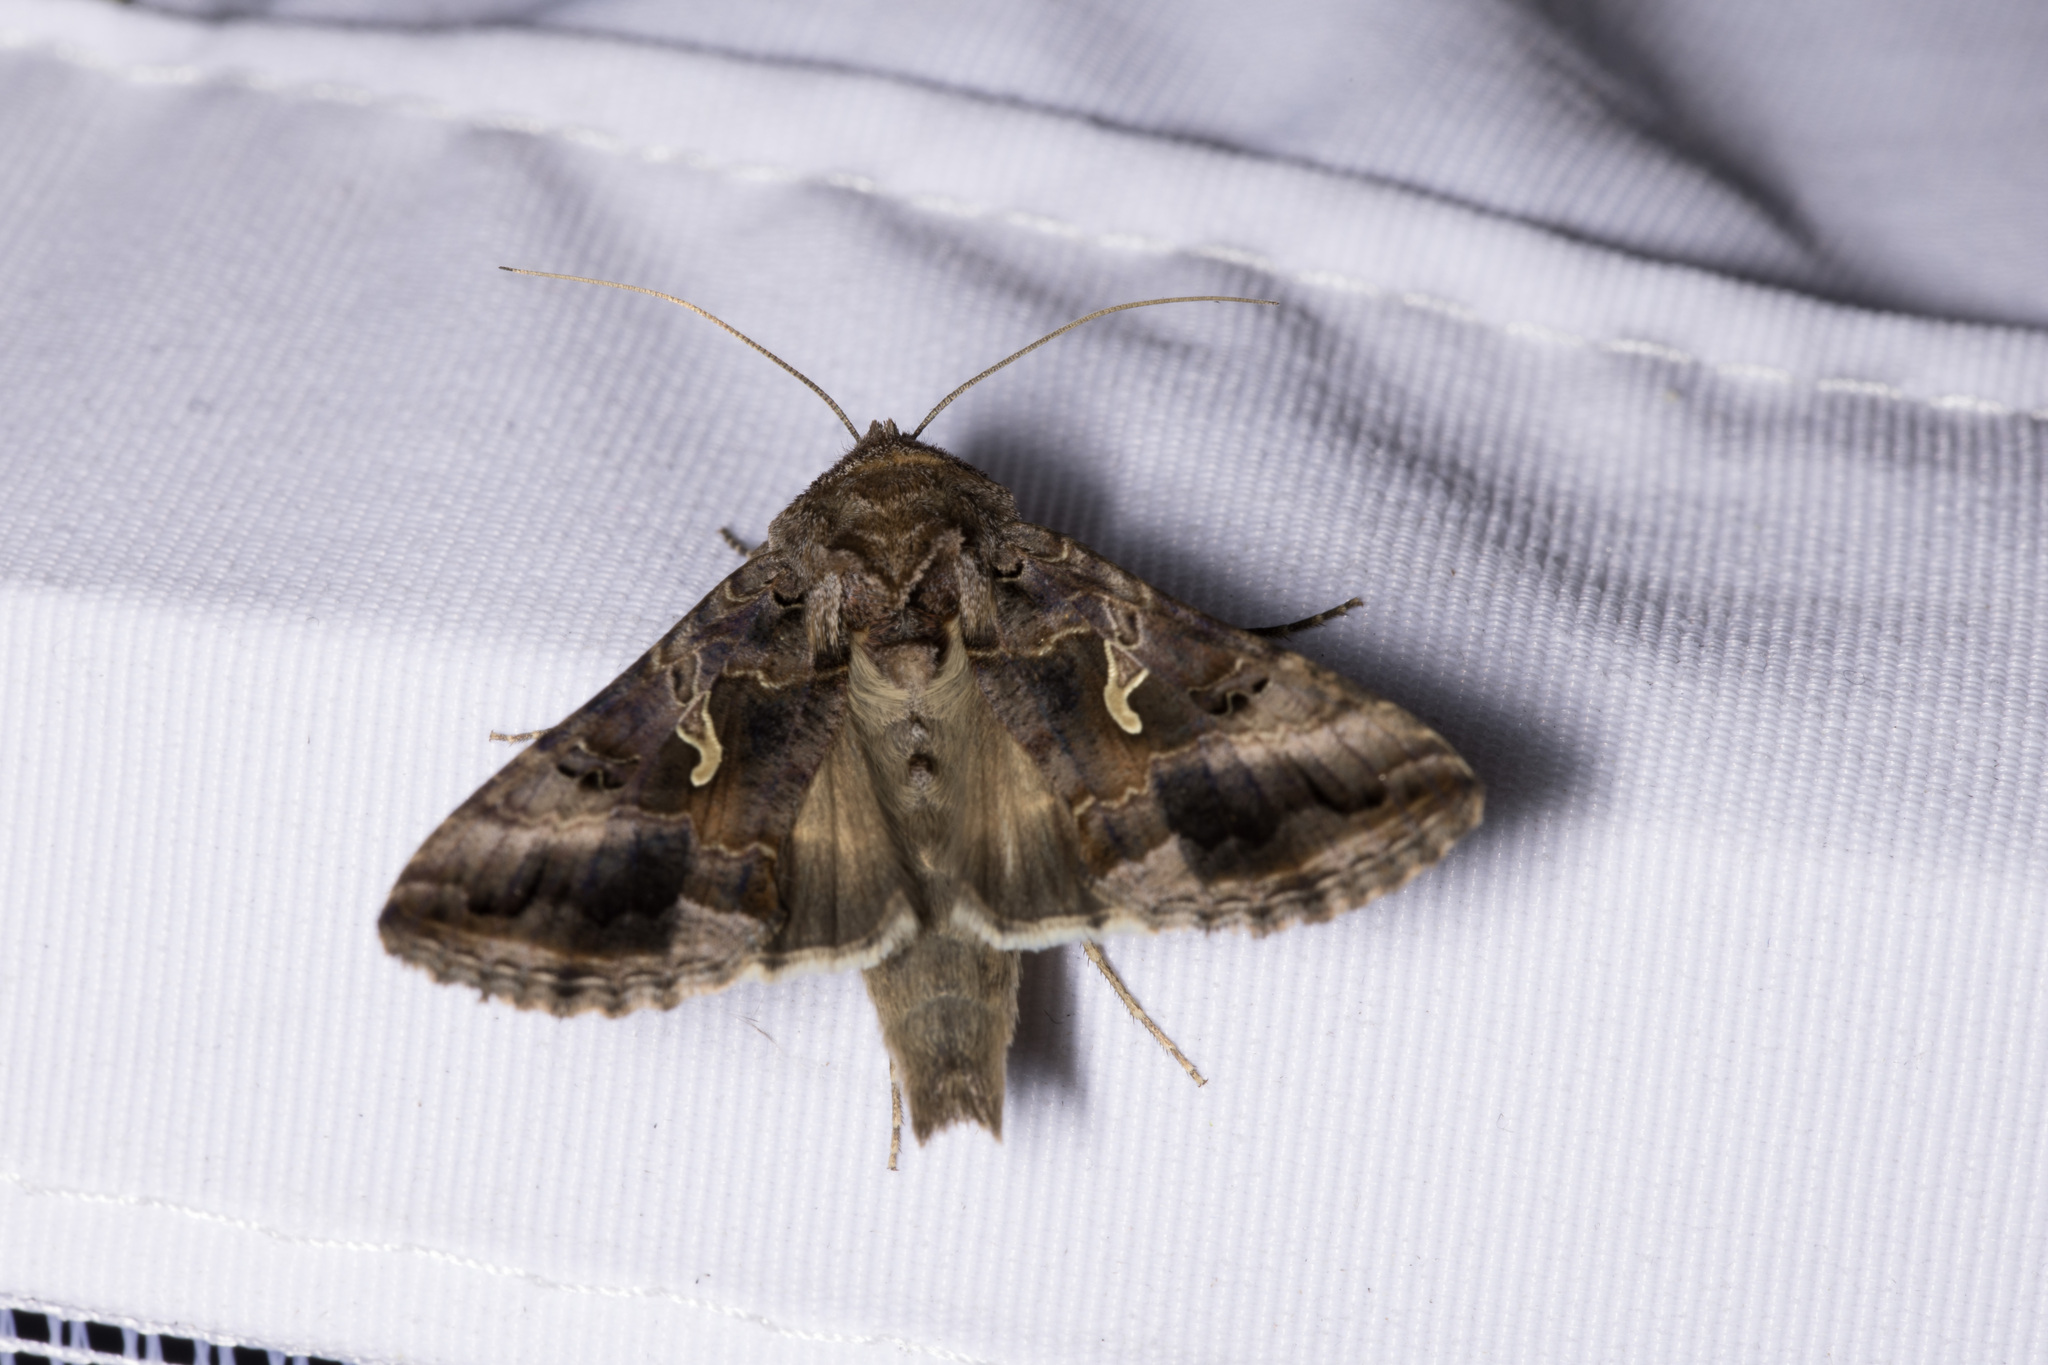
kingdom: Animalia
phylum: Arthropoda
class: Insecta
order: Lepidoptera
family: Noctuidae
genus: Autographa
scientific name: Autographa gamma
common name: Silver y
